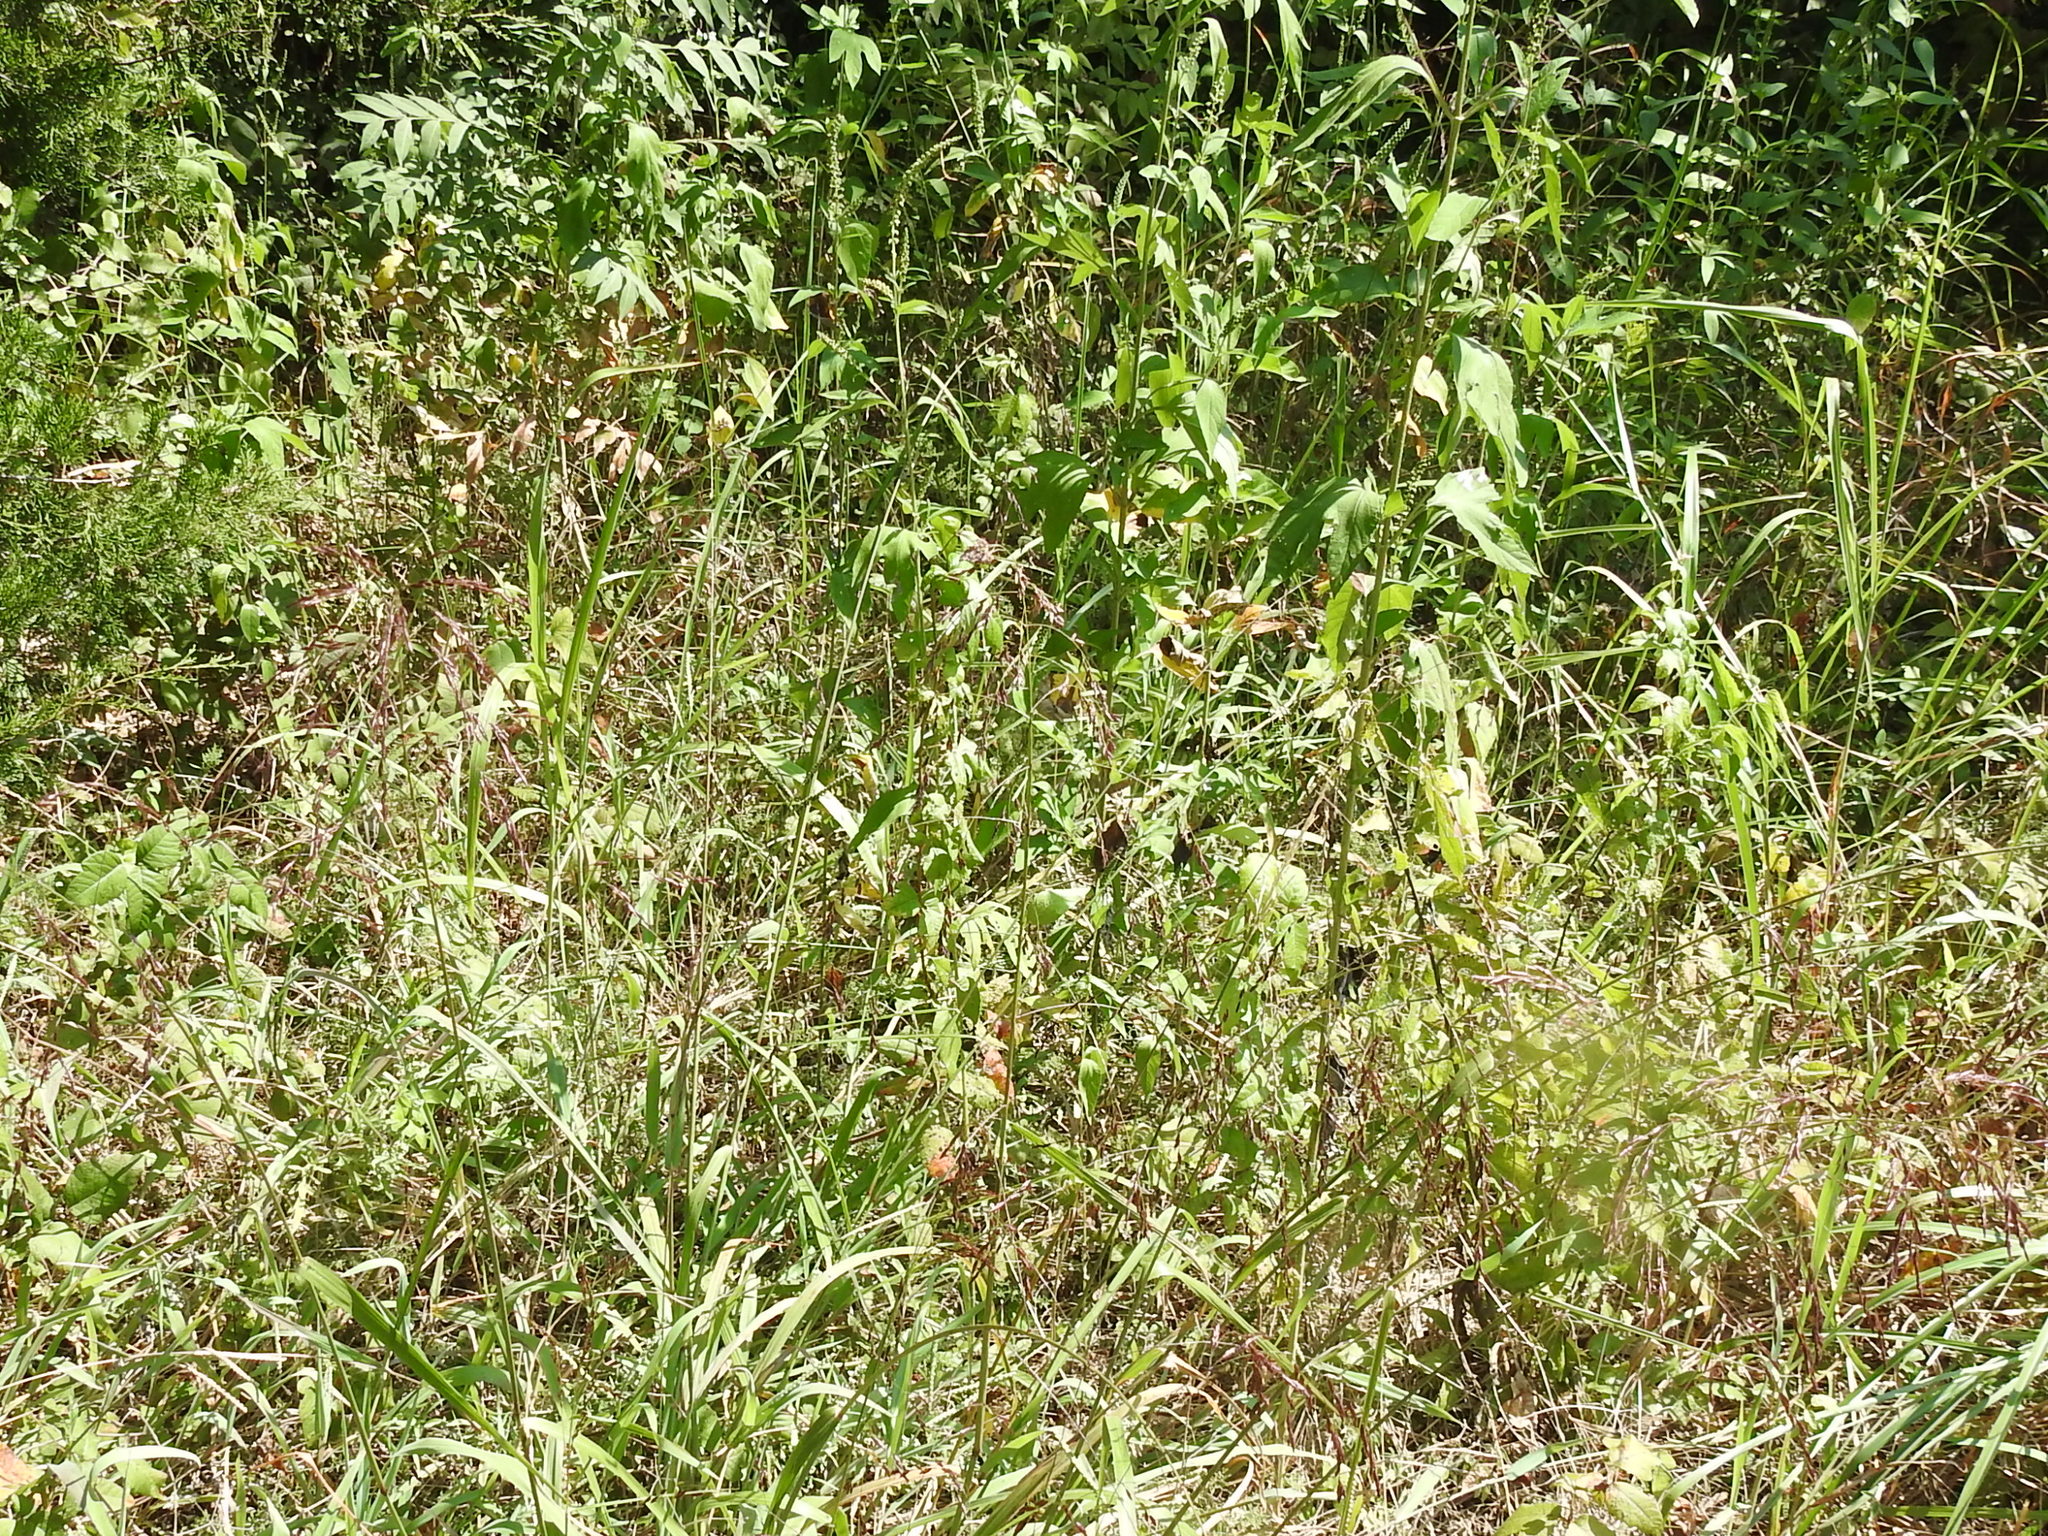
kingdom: Plantae
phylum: Tracheophyta
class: Liliopsida
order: Poales
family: Poaceae
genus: Tridens
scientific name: Tridens flavus
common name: Purpletop
